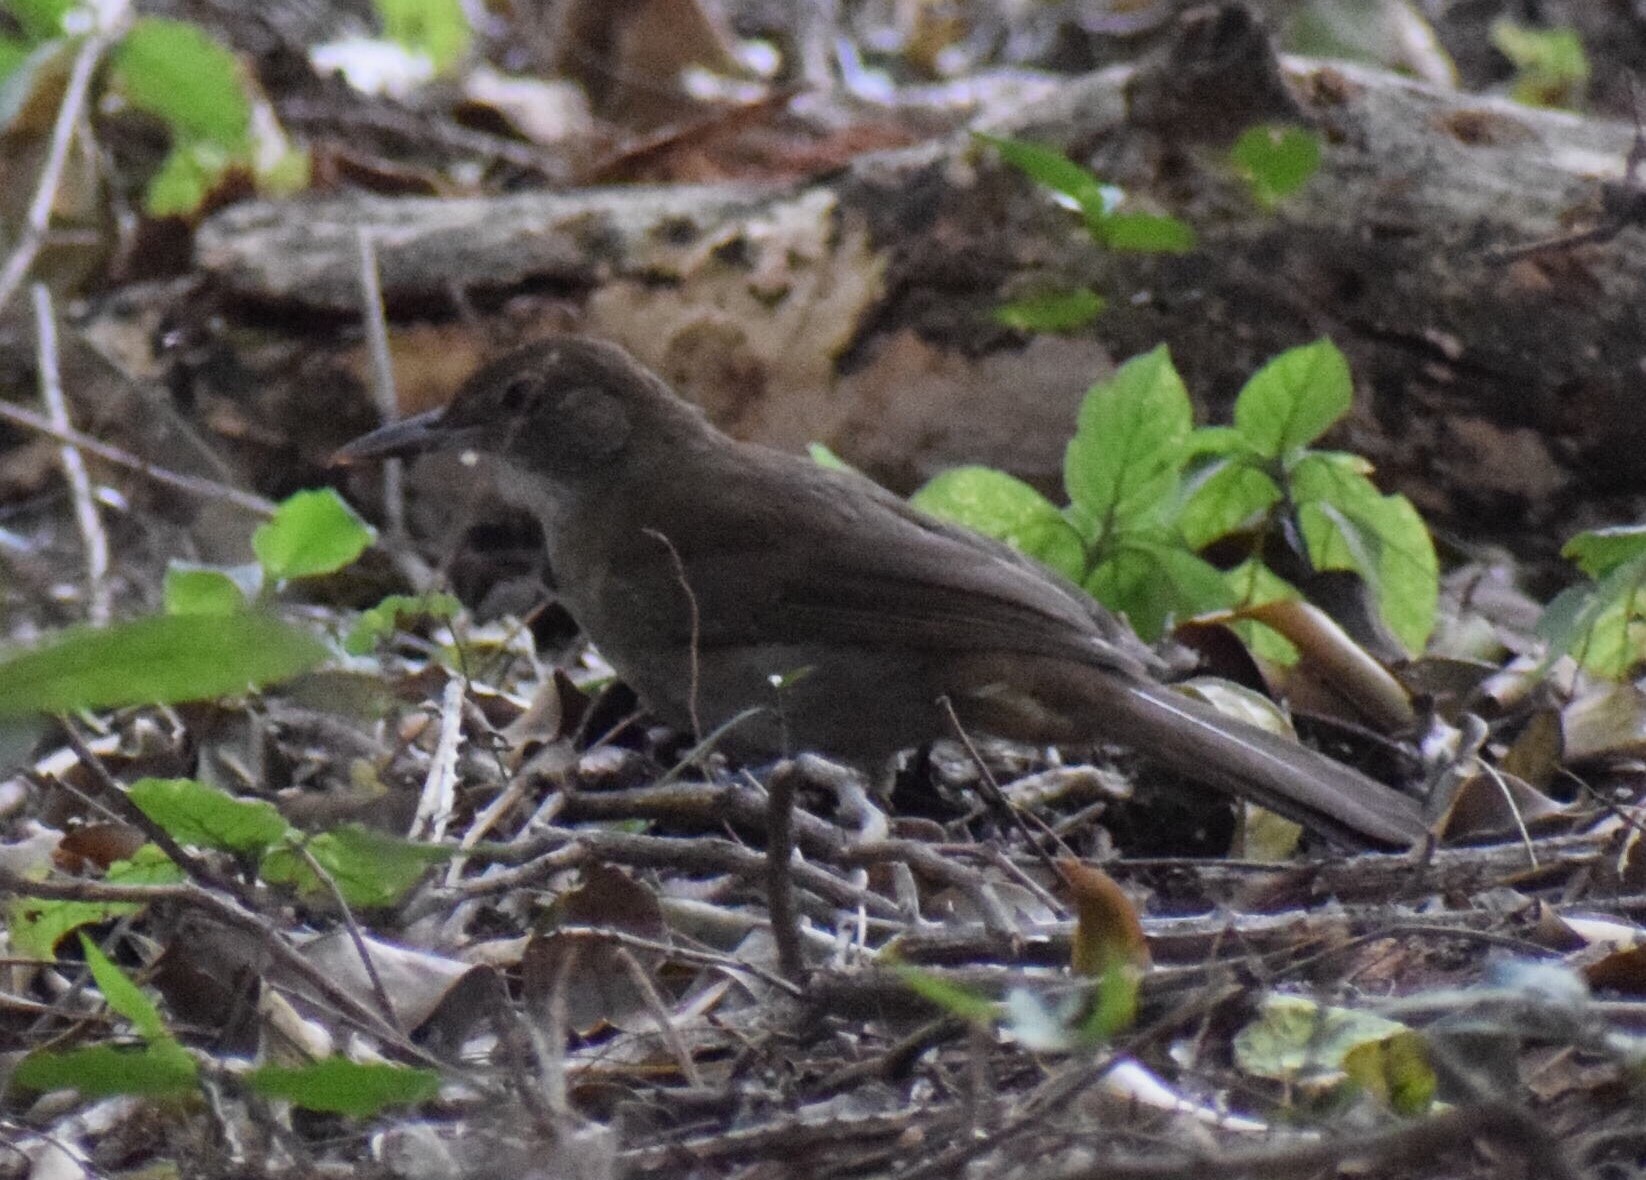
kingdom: Animalia
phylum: Chordata
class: Aves
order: Passeriformes
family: Pycnonotidae
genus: Phyllastrephus
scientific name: Phyllastrephus terrestris
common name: Terrestrial brownbul
